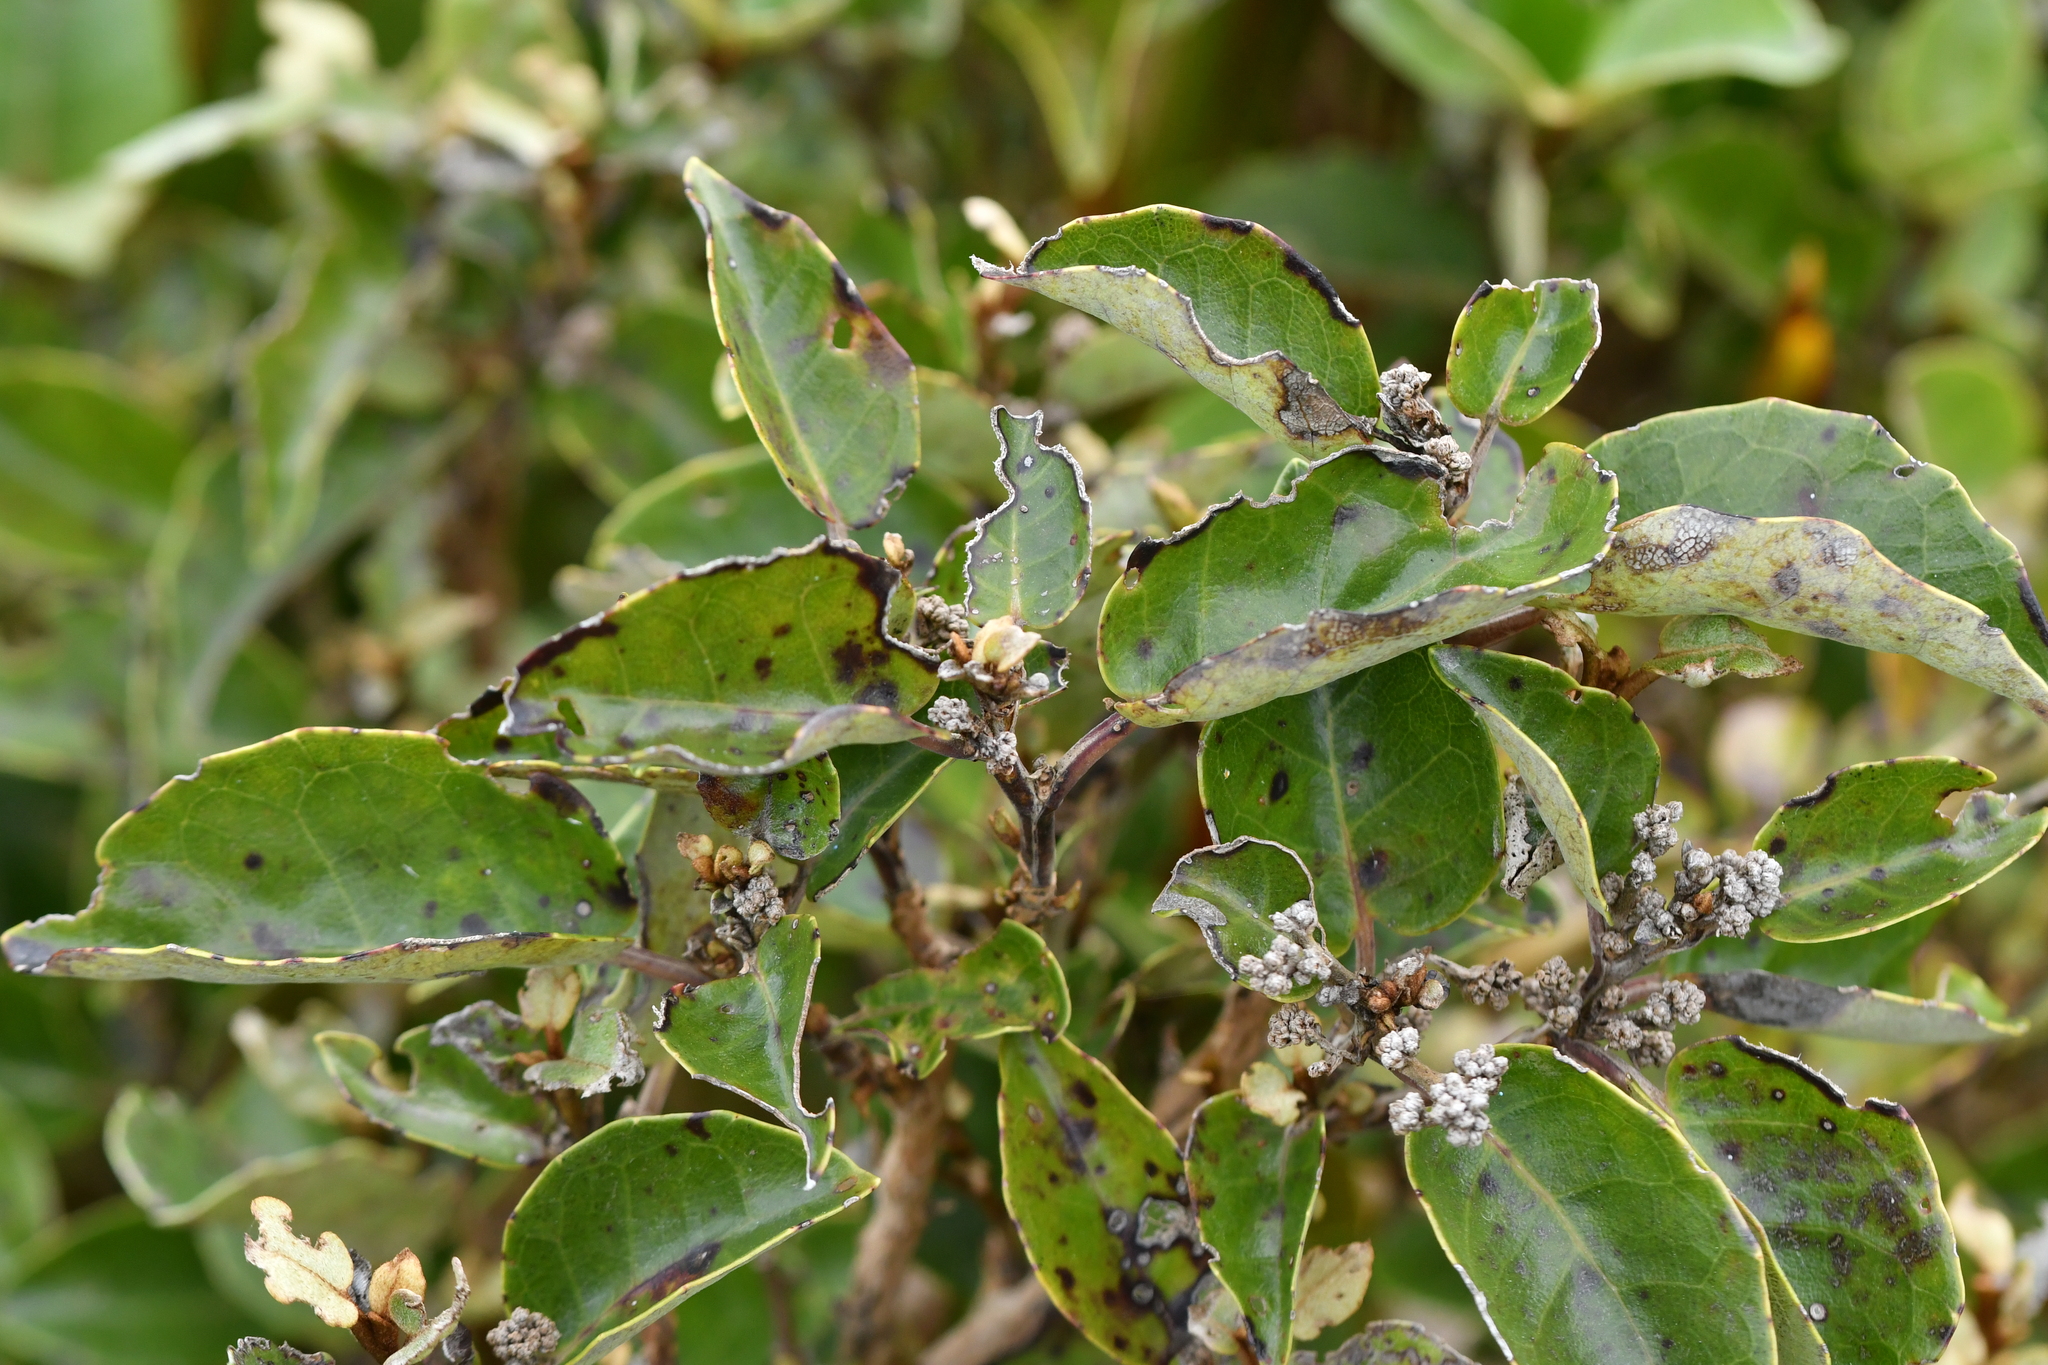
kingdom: Plantae
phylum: Tracheophyta
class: Magnoliopsida
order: Asterales
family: Asteraceae
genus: Olearia
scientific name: Olearia arborescens
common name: Glossy tree daisy
